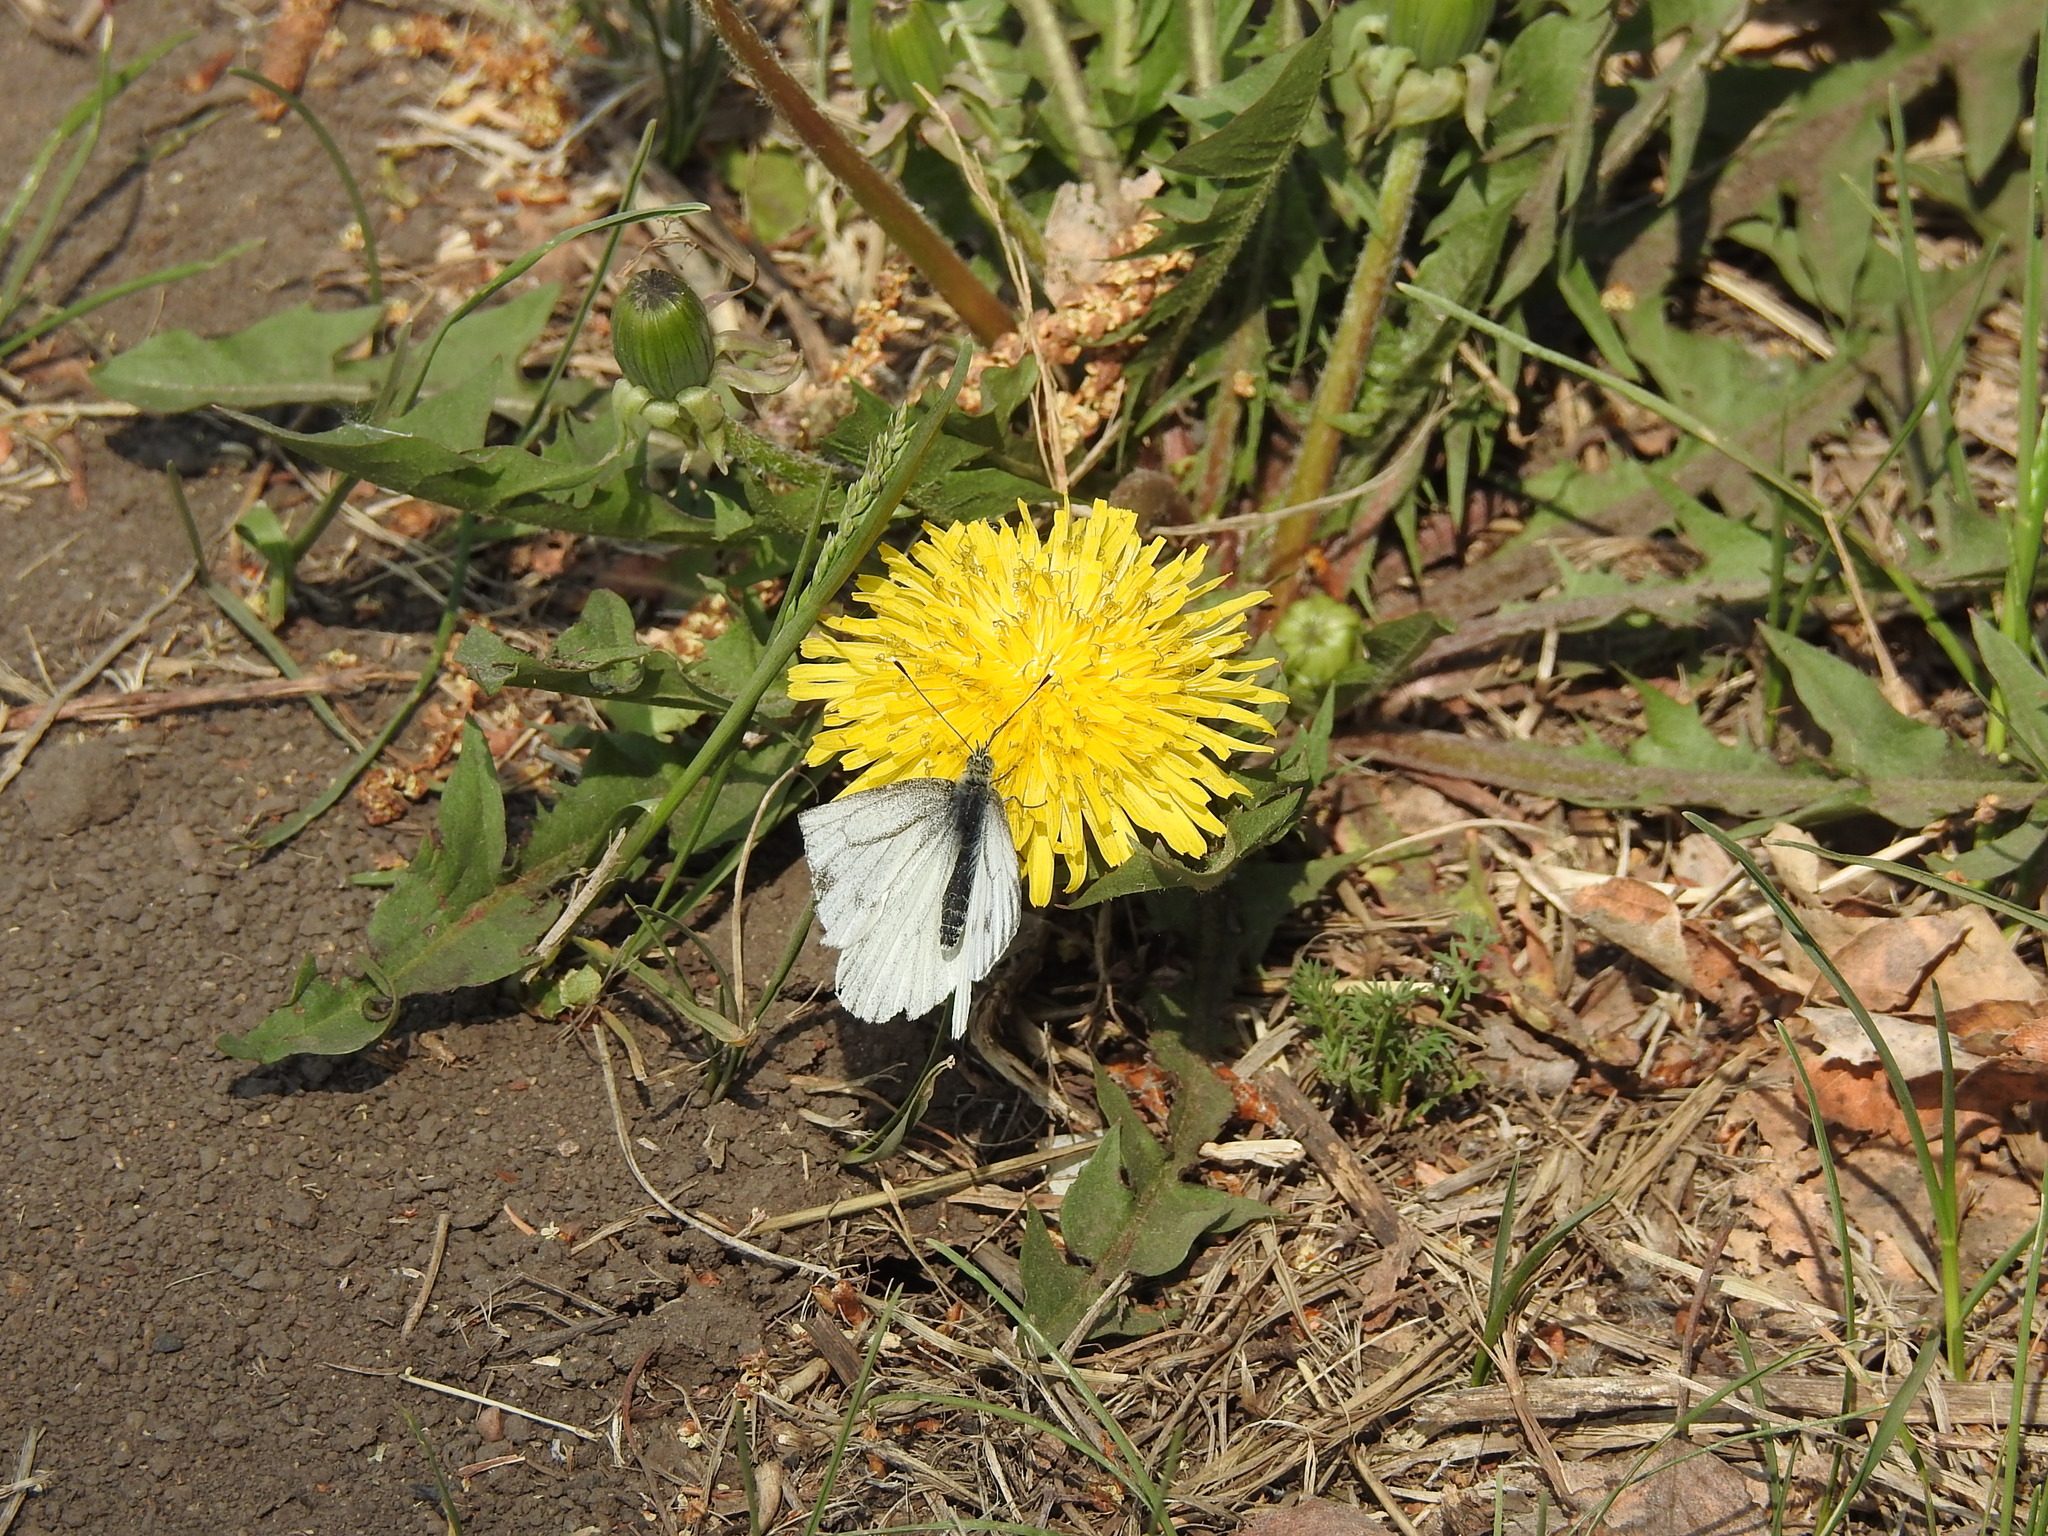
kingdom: Animalia
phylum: Arthropoda
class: Insecta
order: Lepidoptera
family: Pieridae
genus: Pieris
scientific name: Pieris napi
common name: Green-veined white
